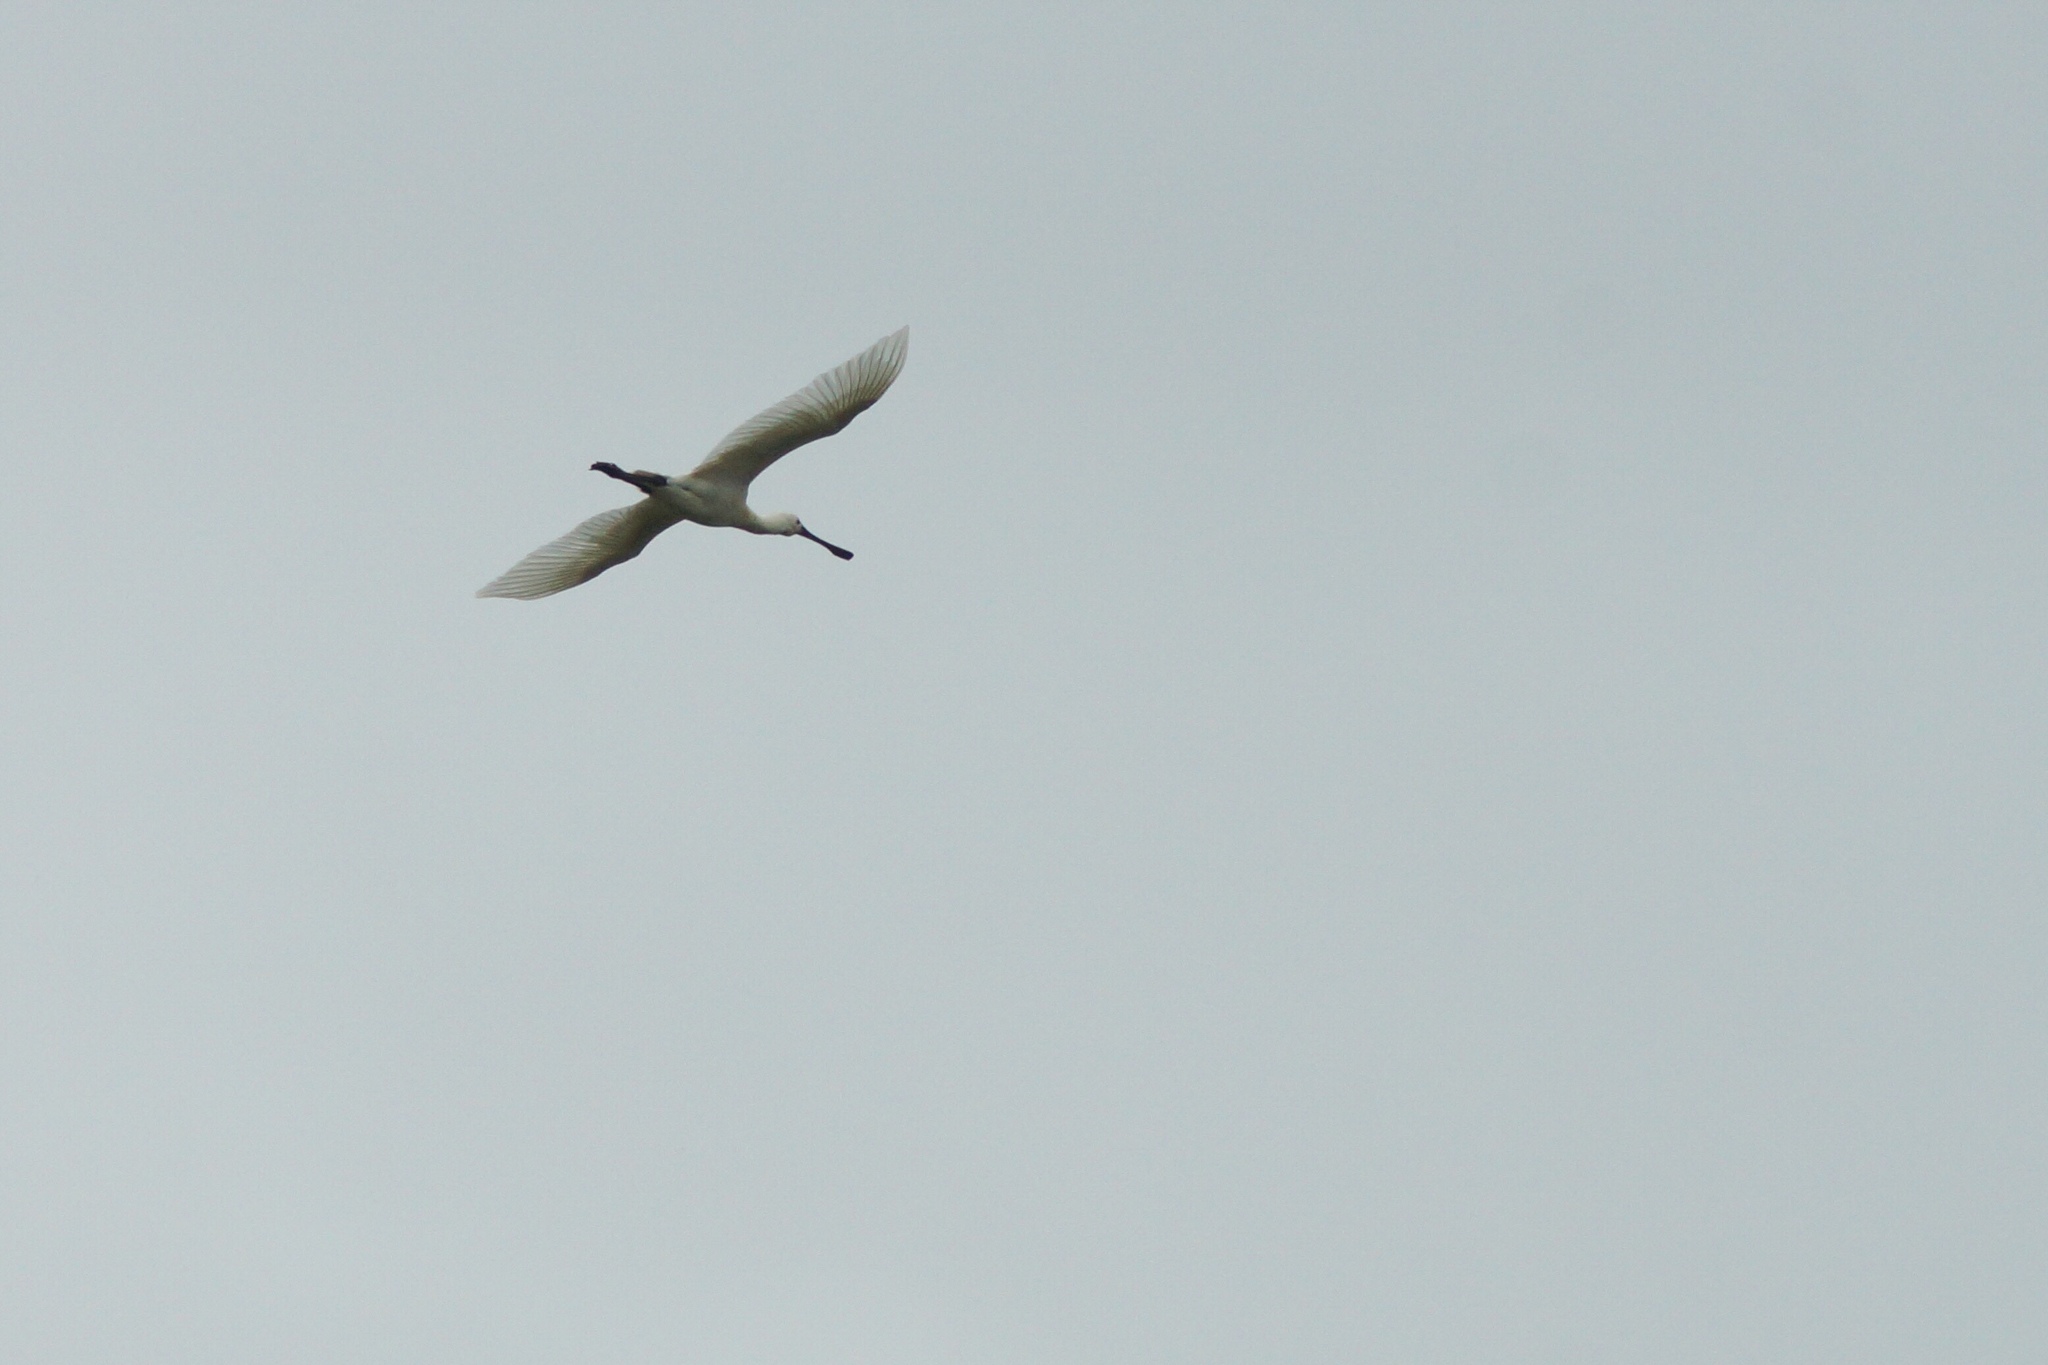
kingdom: Animalia
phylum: Chordata
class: Aves
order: Pelecaniformes
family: Threskiornithidae
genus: Platalea
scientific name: Platalea leucorodia
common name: Eurasian spoonbill
